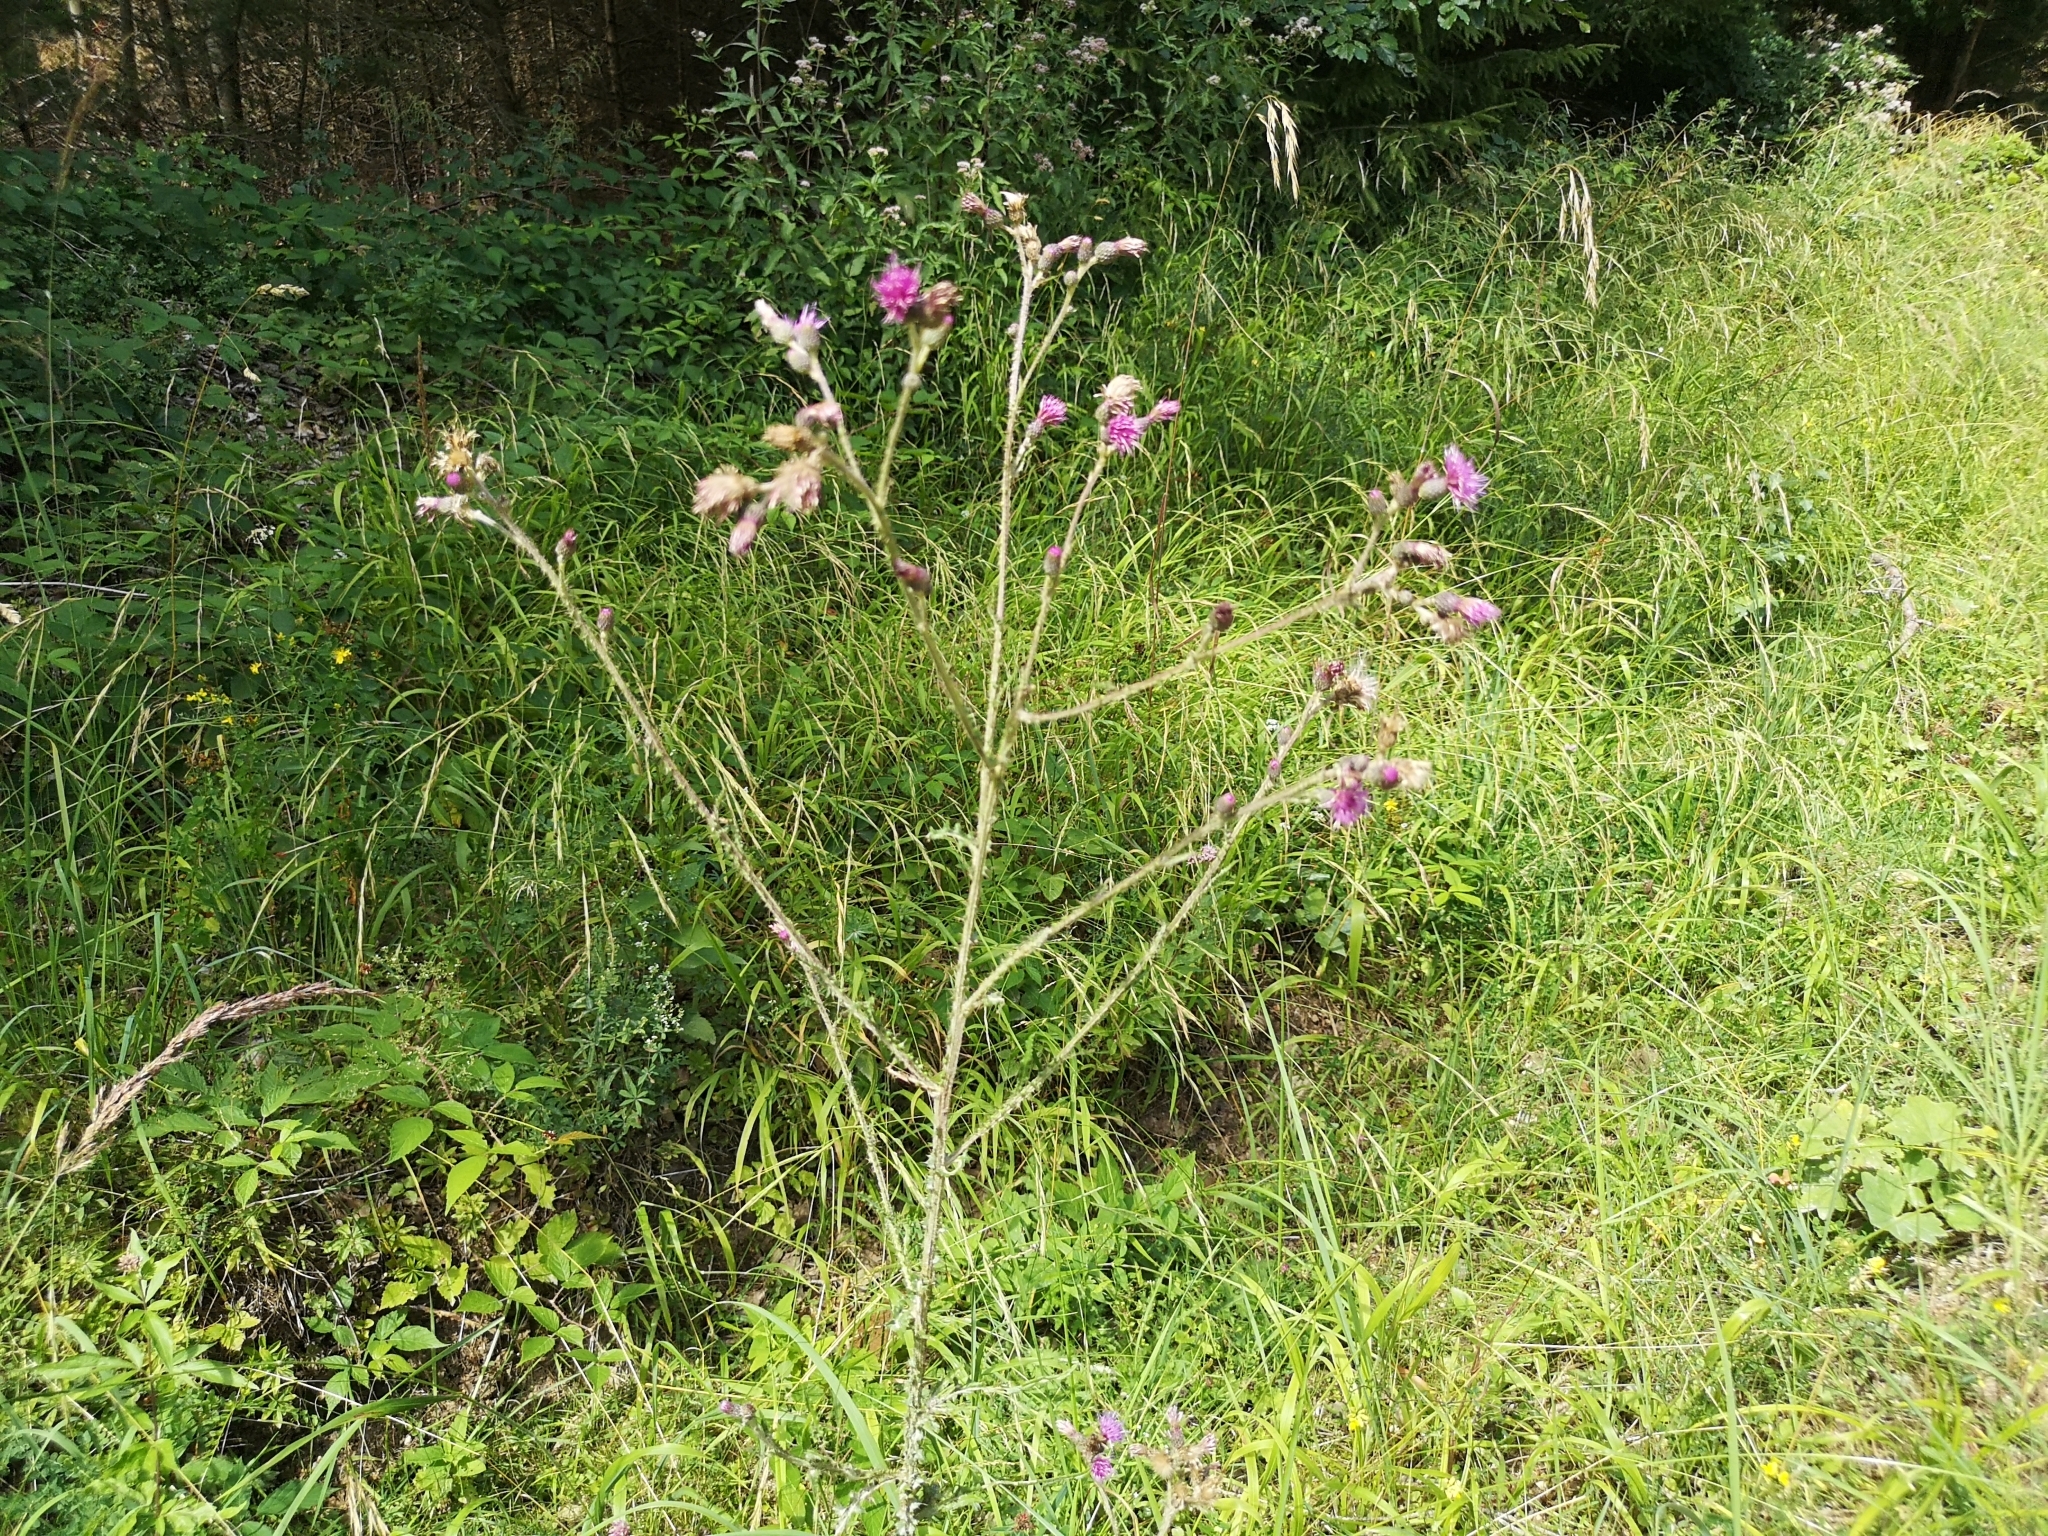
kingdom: Plantae
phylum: Tracheophyta
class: Magnoliopsida
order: Asterales
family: Asteraceae
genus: Cirsium
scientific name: Cirsium palustre
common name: Marsh thistle
